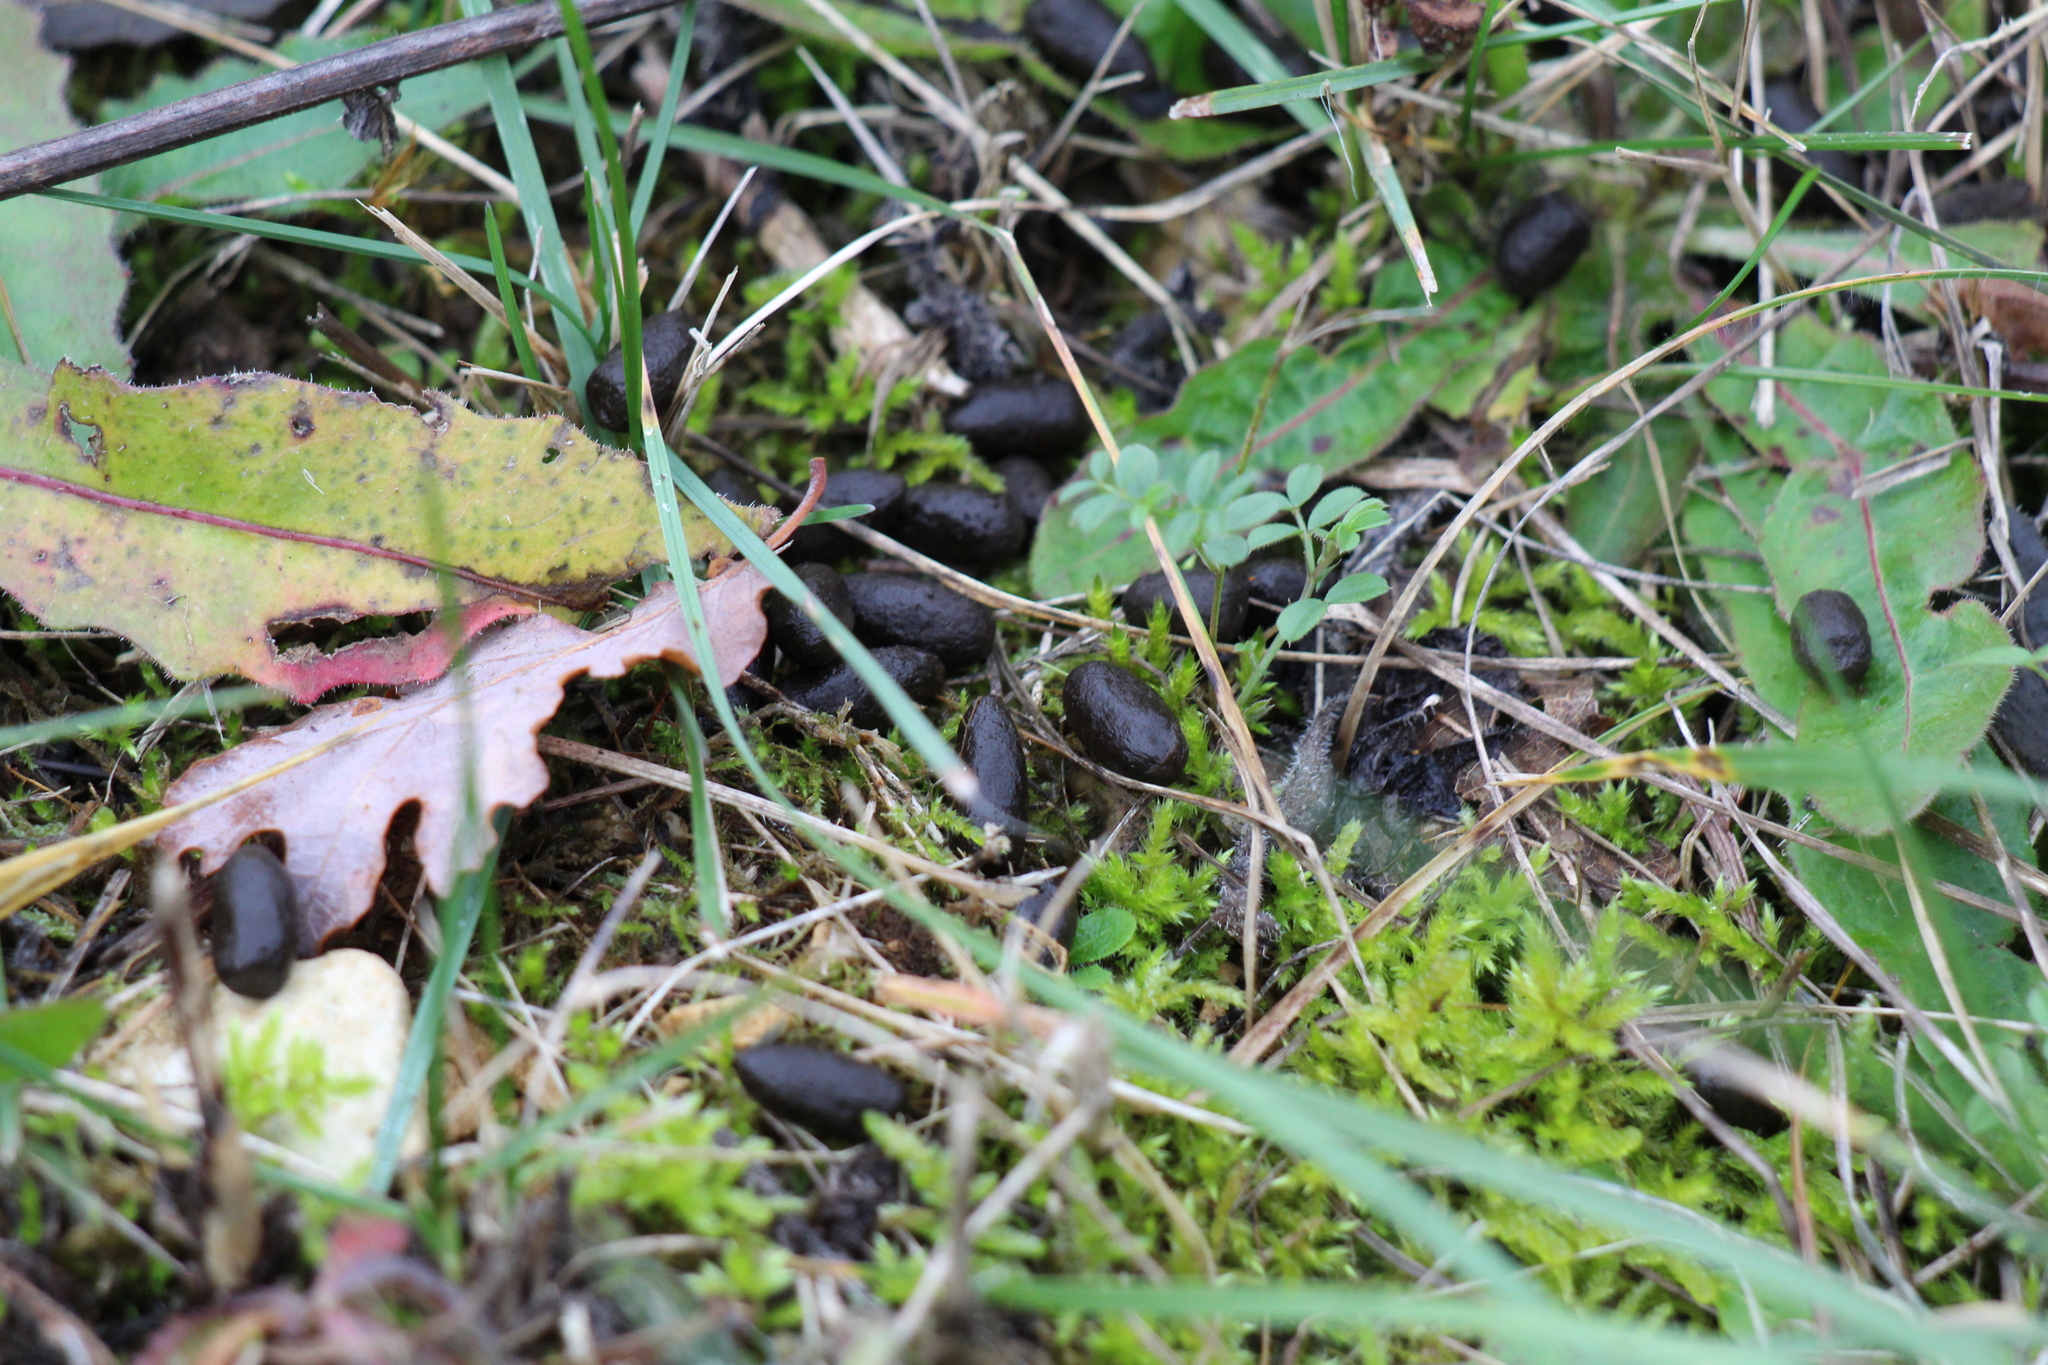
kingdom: Animalia
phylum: Chordata
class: Mammalia
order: Artiodactyla
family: Cervidae
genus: Capreolus
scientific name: Capreolus capreolus
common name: Western roe deer
